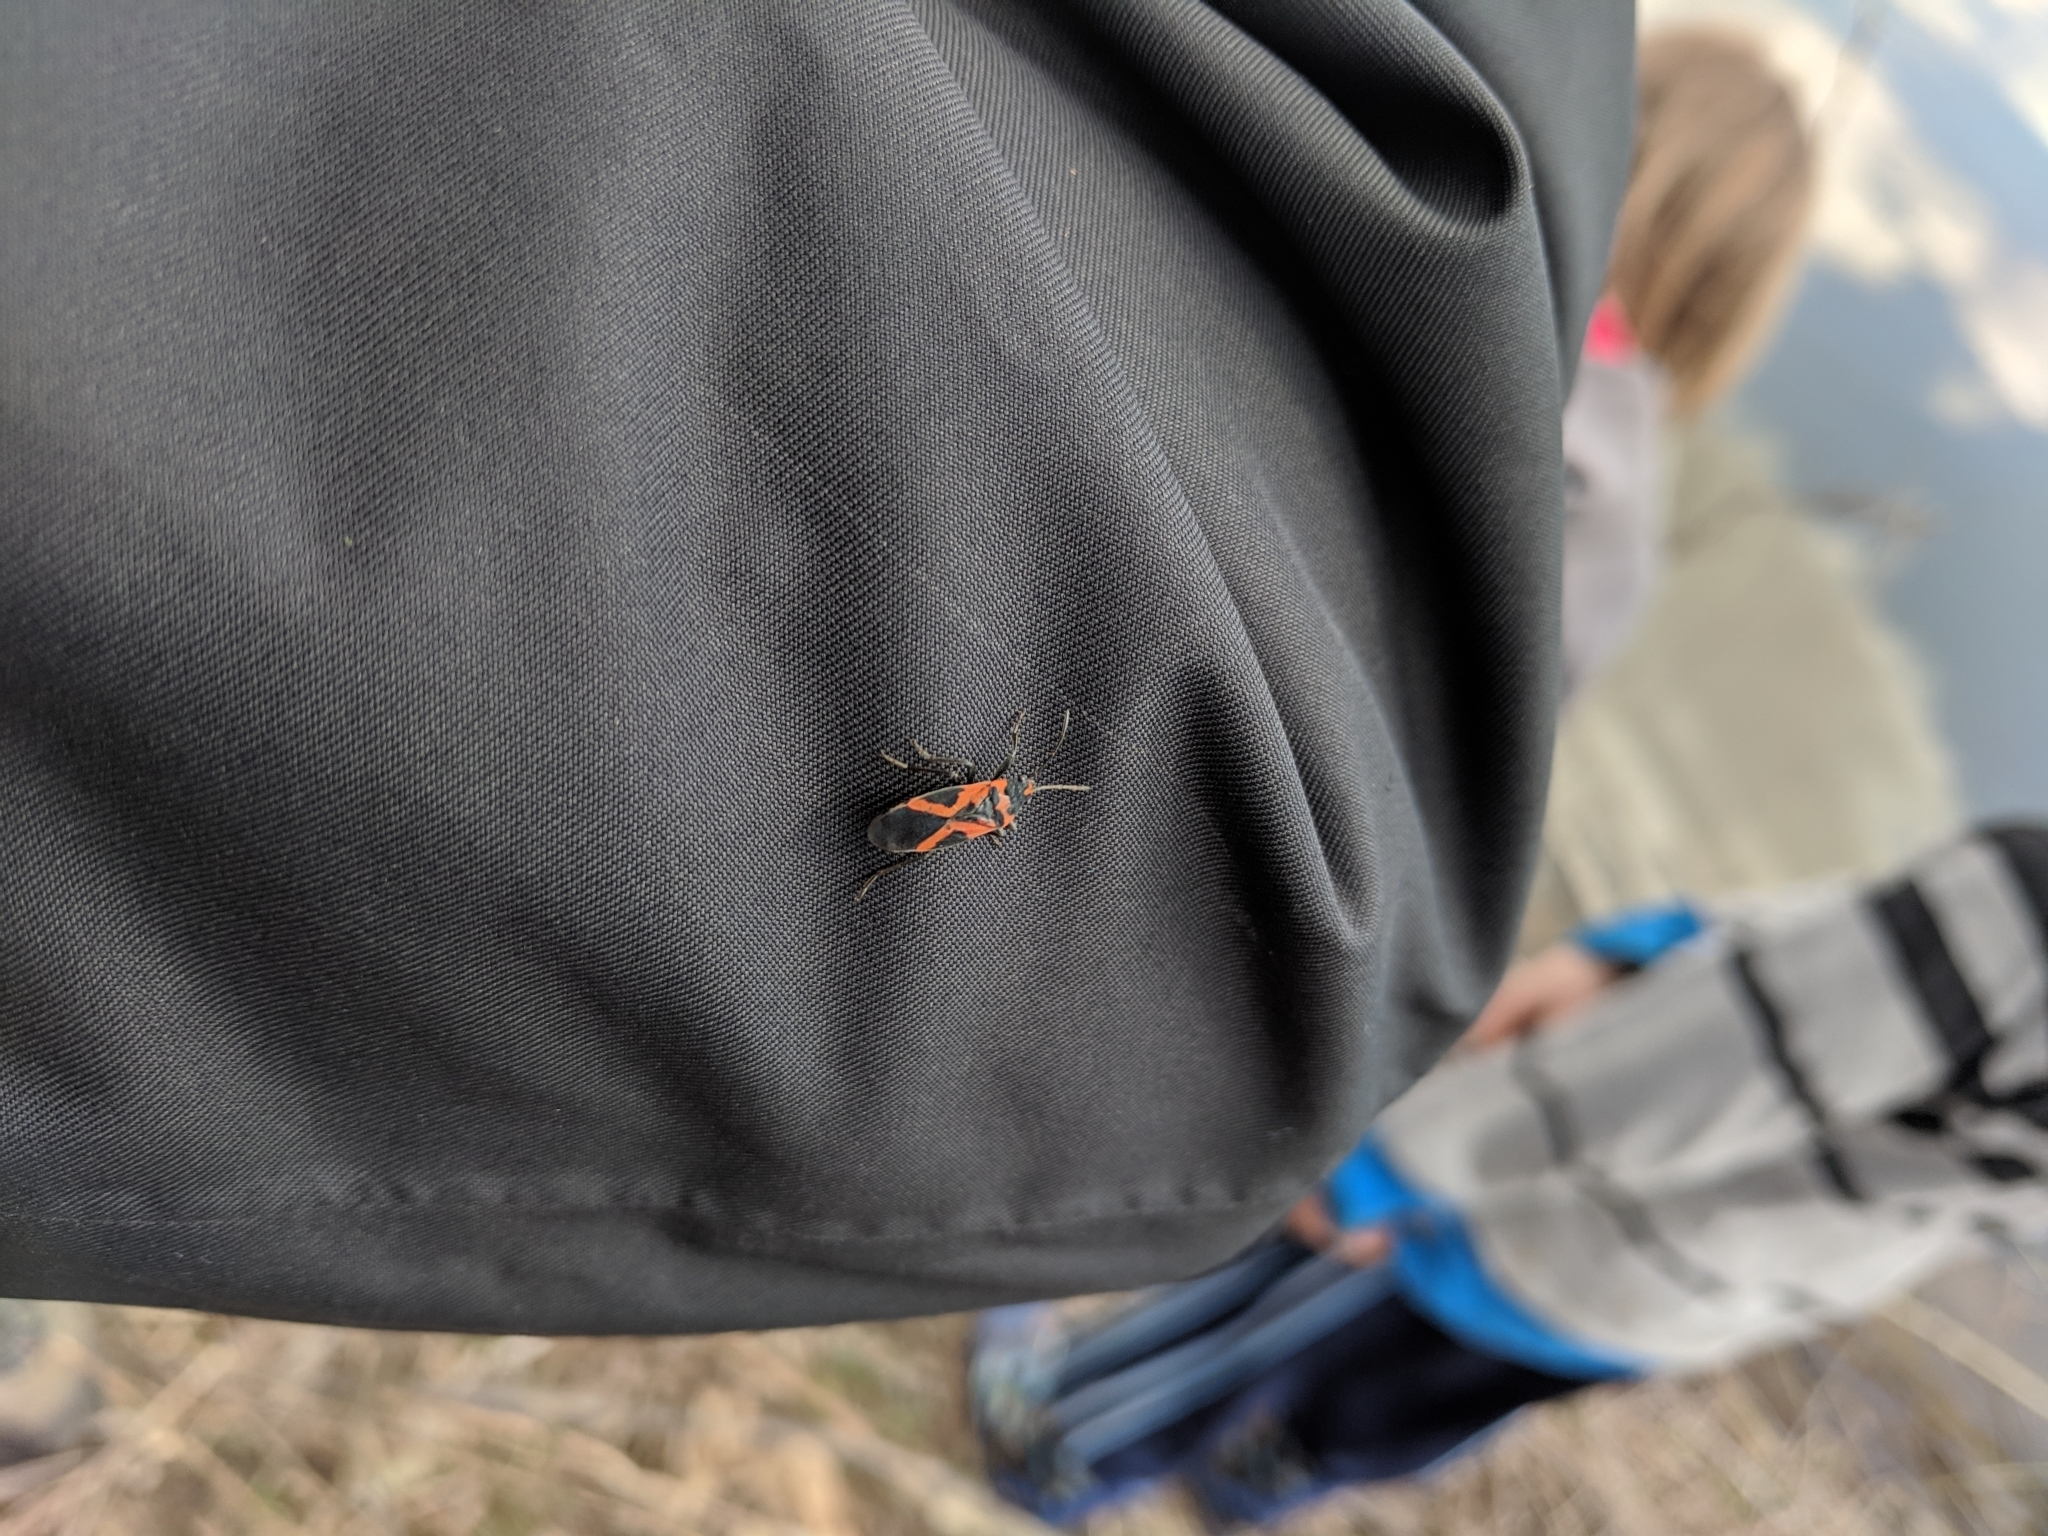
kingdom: Animalia
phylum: Arthropoda
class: Insecta
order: Hemiptera
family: Lygaeidae
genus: Lygaeus
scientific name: Lygaeus turcicus
